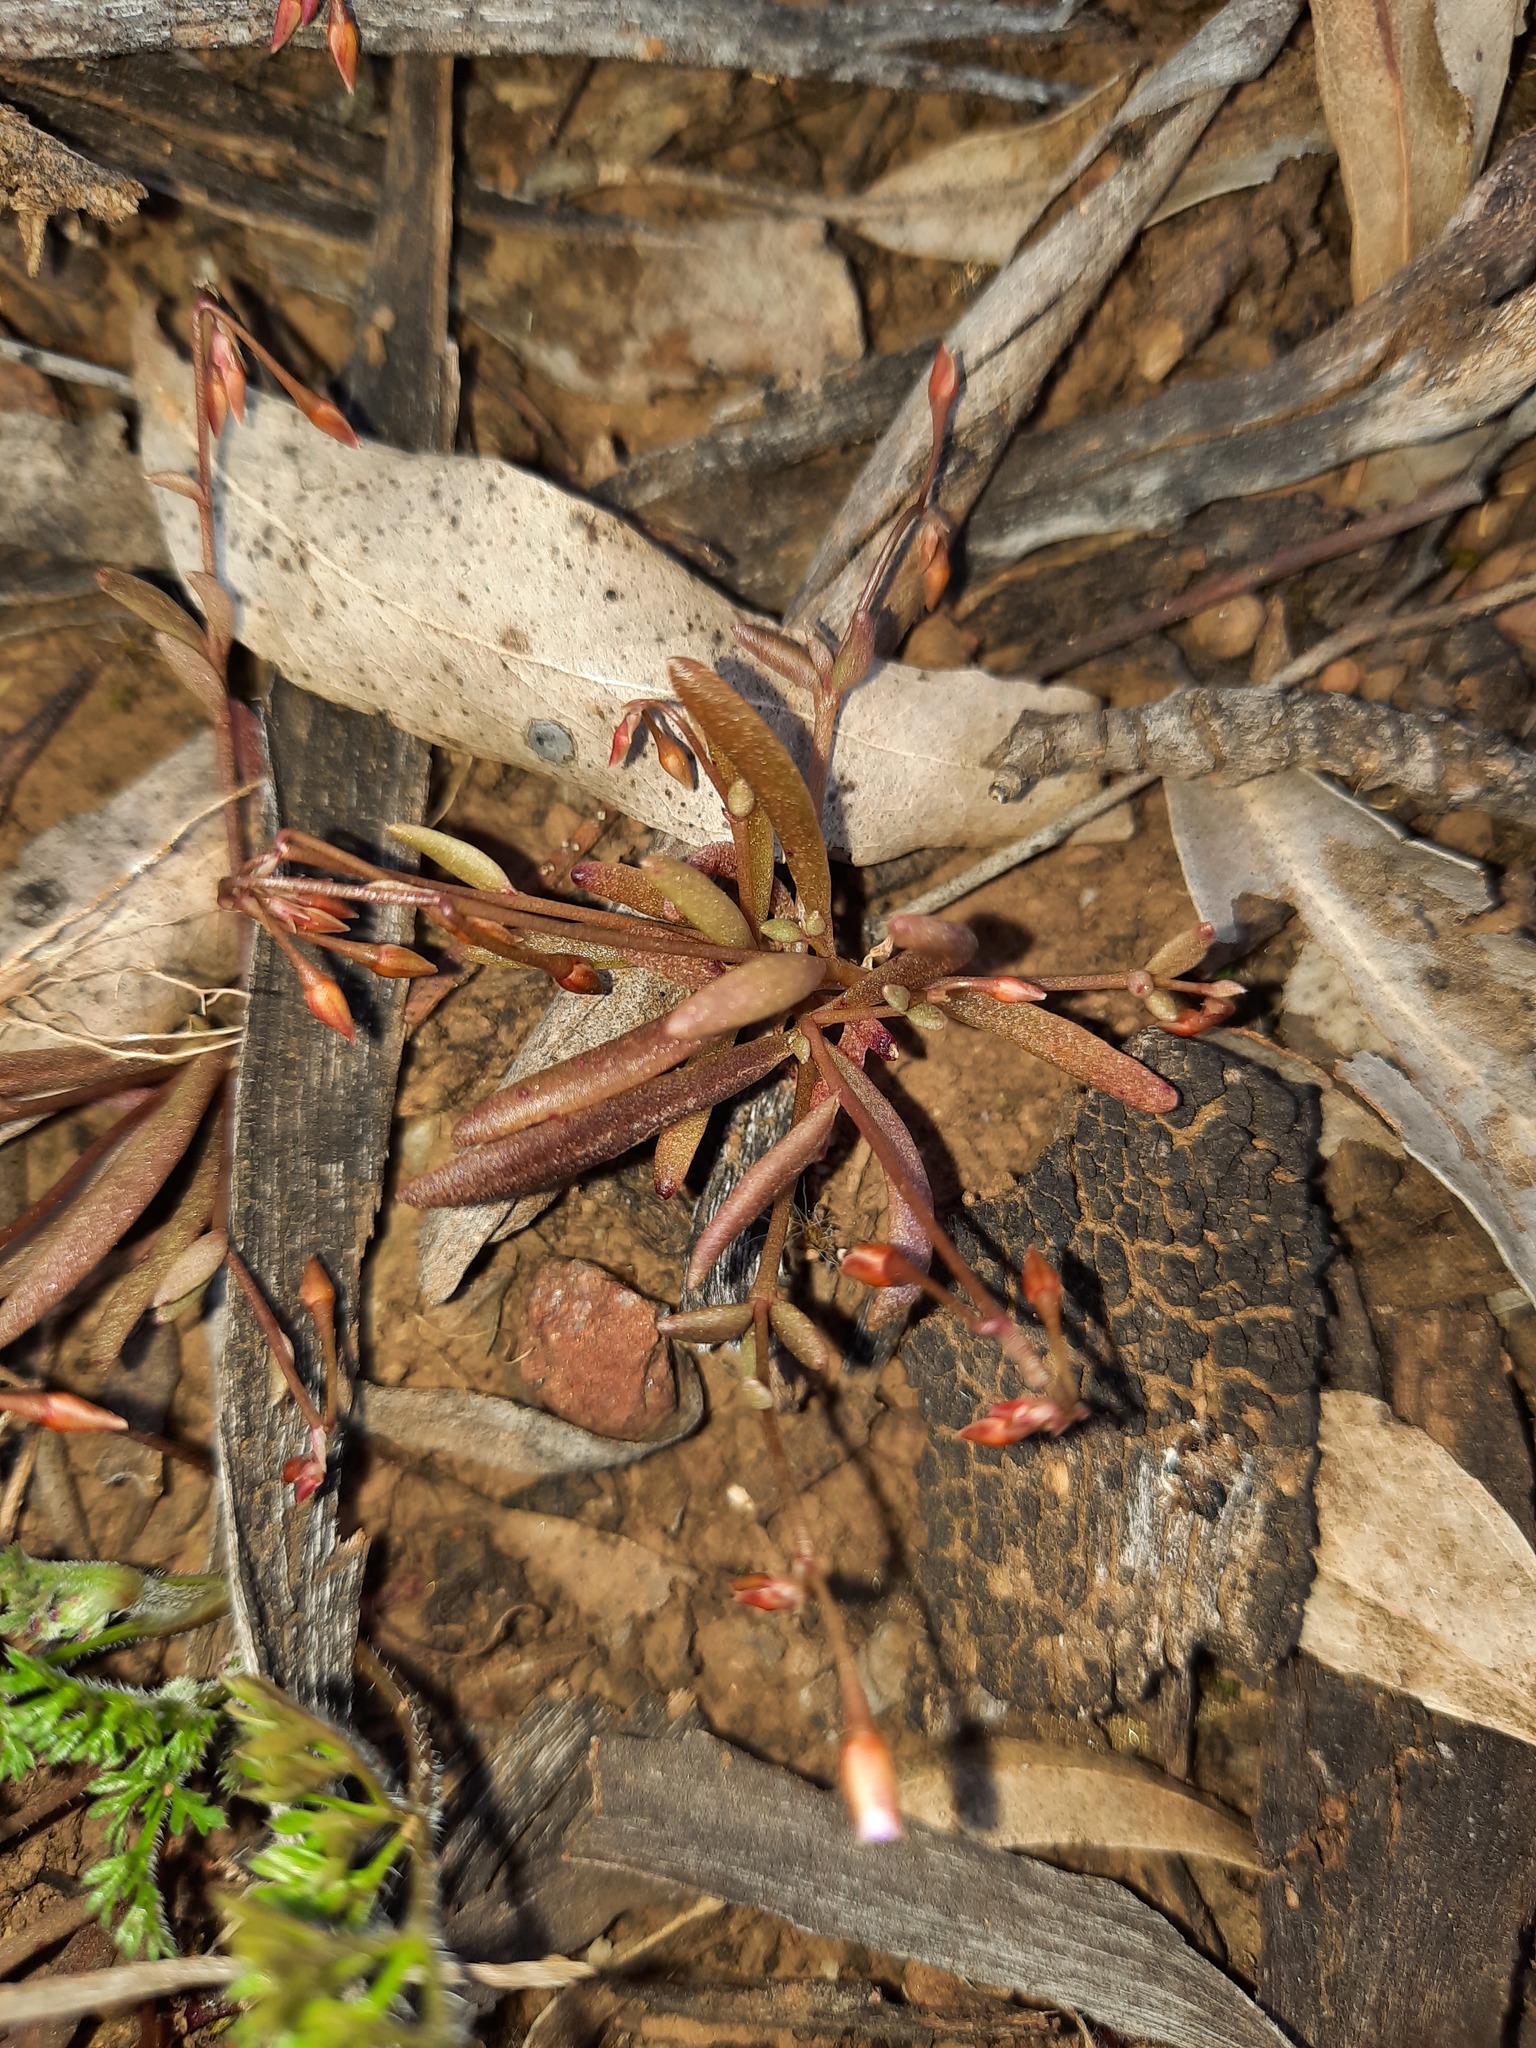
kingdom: Plantae
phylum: Tracheophyta
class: Magnoliopsida
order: Caryophyllales
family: Montiaceae
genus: Rumicastrum
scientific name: Rumicastrum calyptratum
